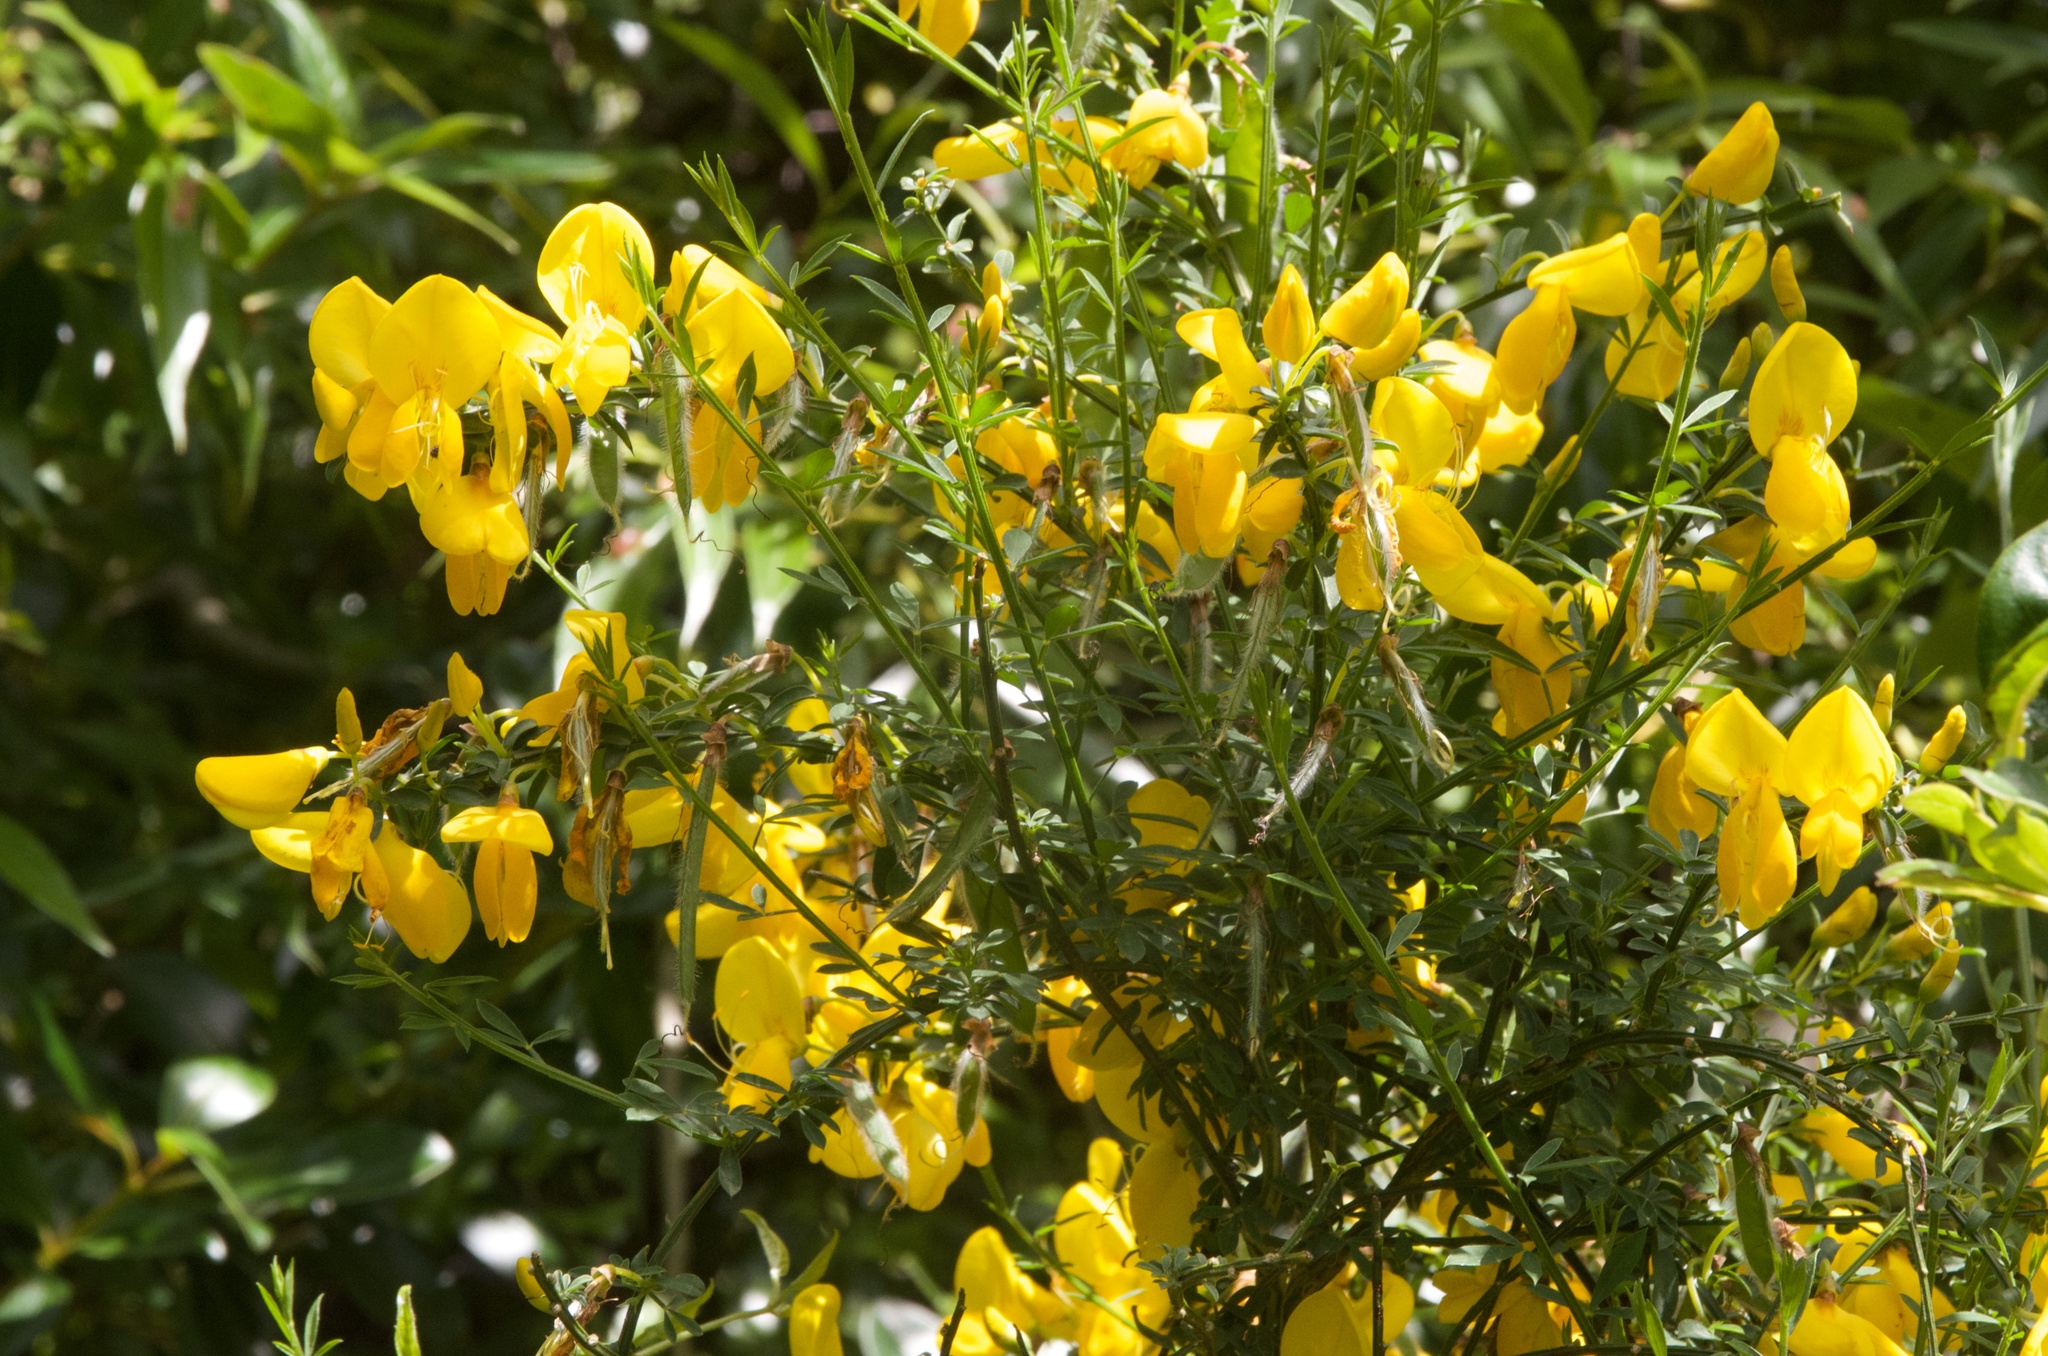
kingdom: Plantae
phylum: Tracheophyta
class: Magnoliopsida
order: Fabales
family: Fabaceae
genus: Cytisus
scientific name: Cytisus scoparius
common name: Scotch broom
